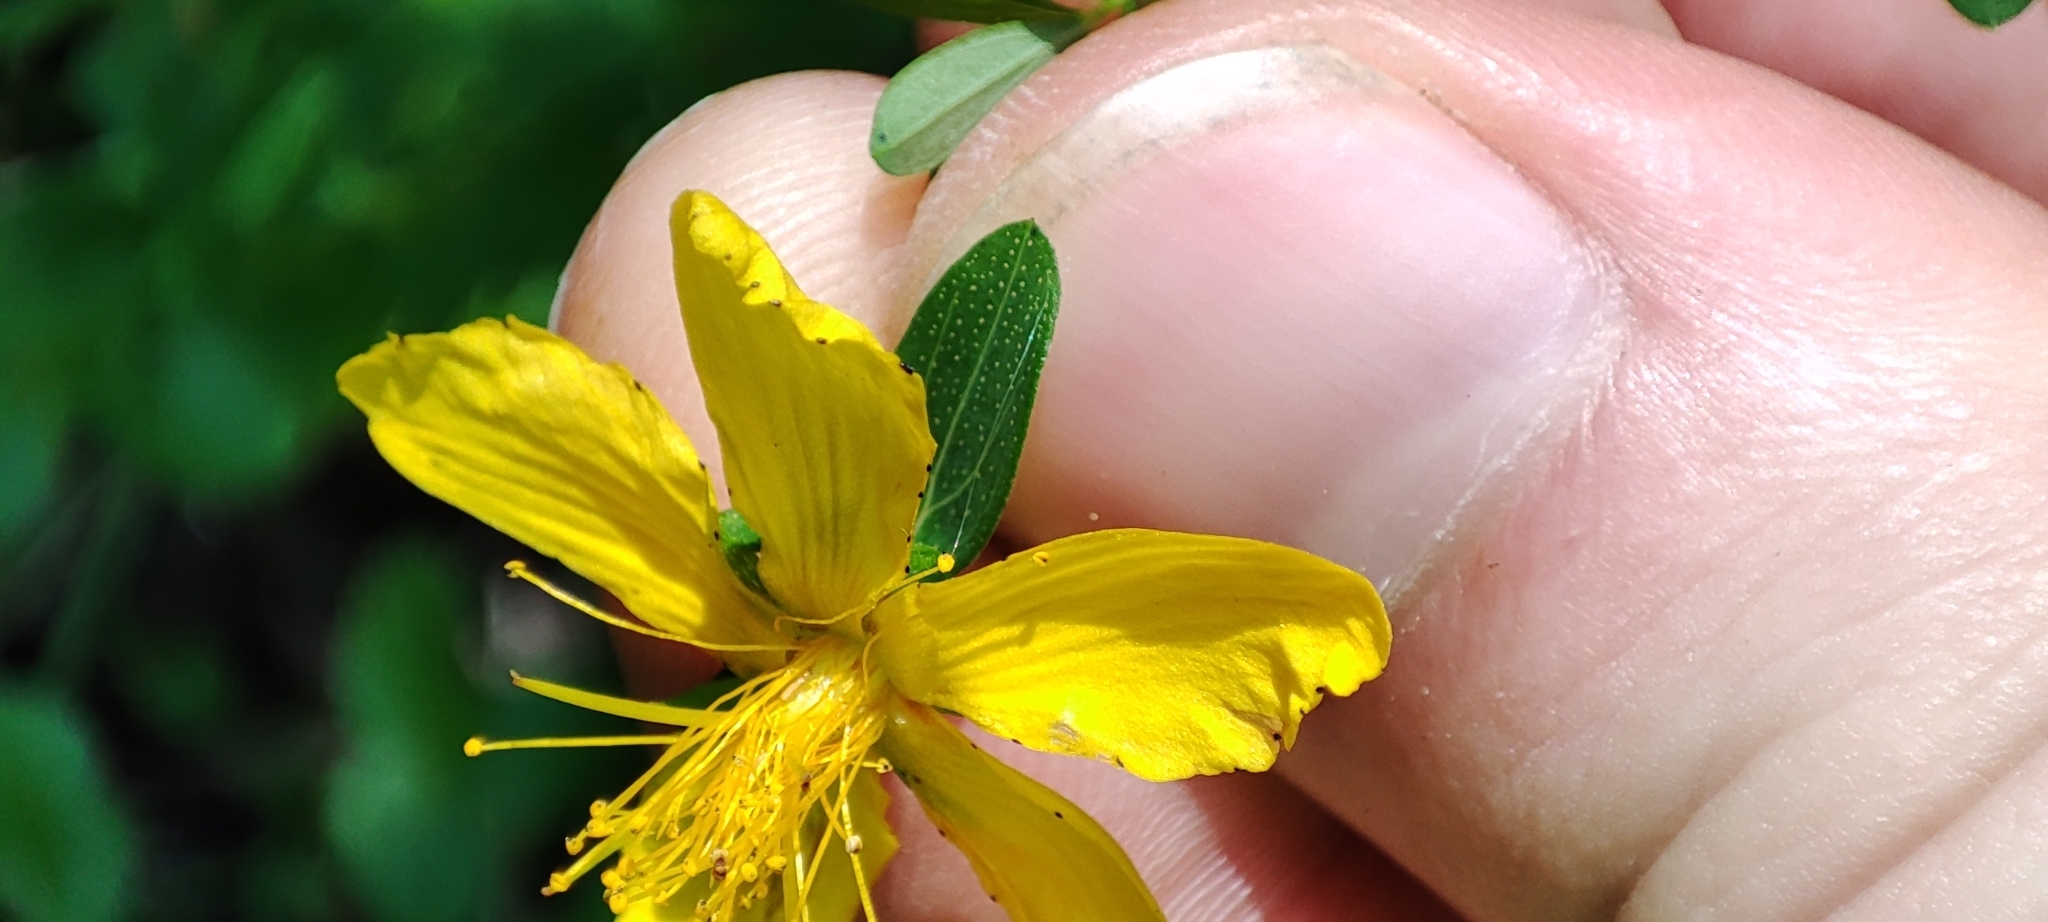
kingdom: Plantae
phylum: Tracheophyta
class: Magnoliopsida
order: Malpighiales
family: Hypericaceae
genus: Hypericum
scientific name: Hypericum perforatum
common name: Common st. johnswort
